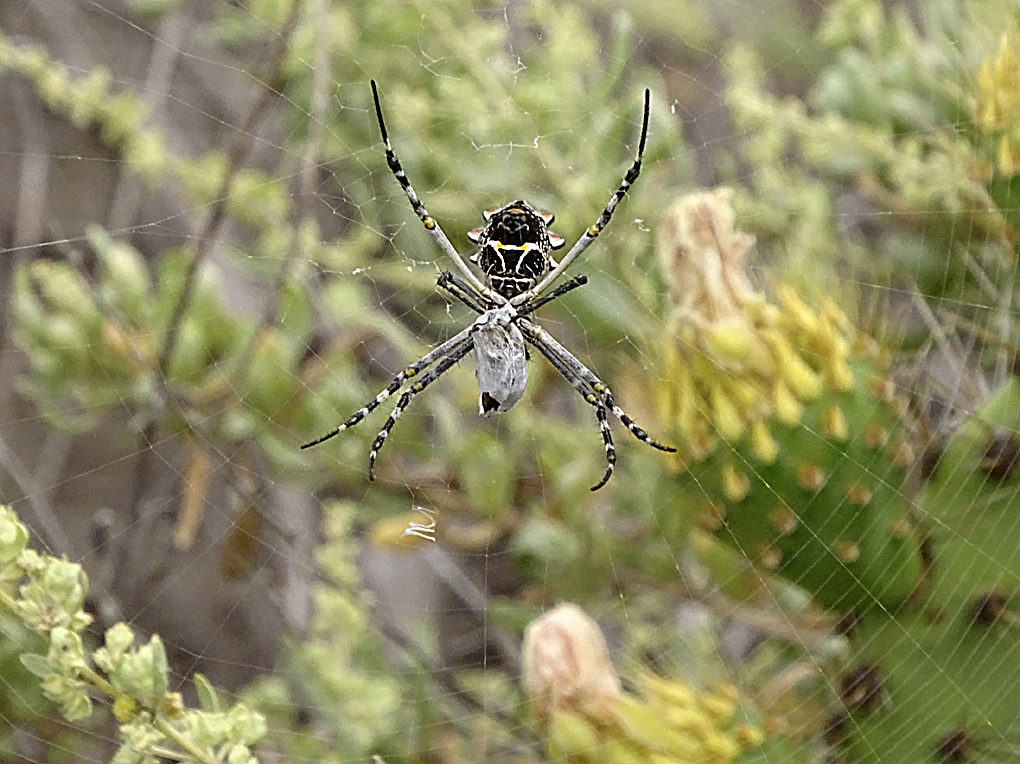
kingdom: Animalia
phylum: Arthropoda
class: Arachnida
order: Araneae
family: Araneidae
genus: Argiope
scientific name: Argiope argentata
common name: Orb weavers
